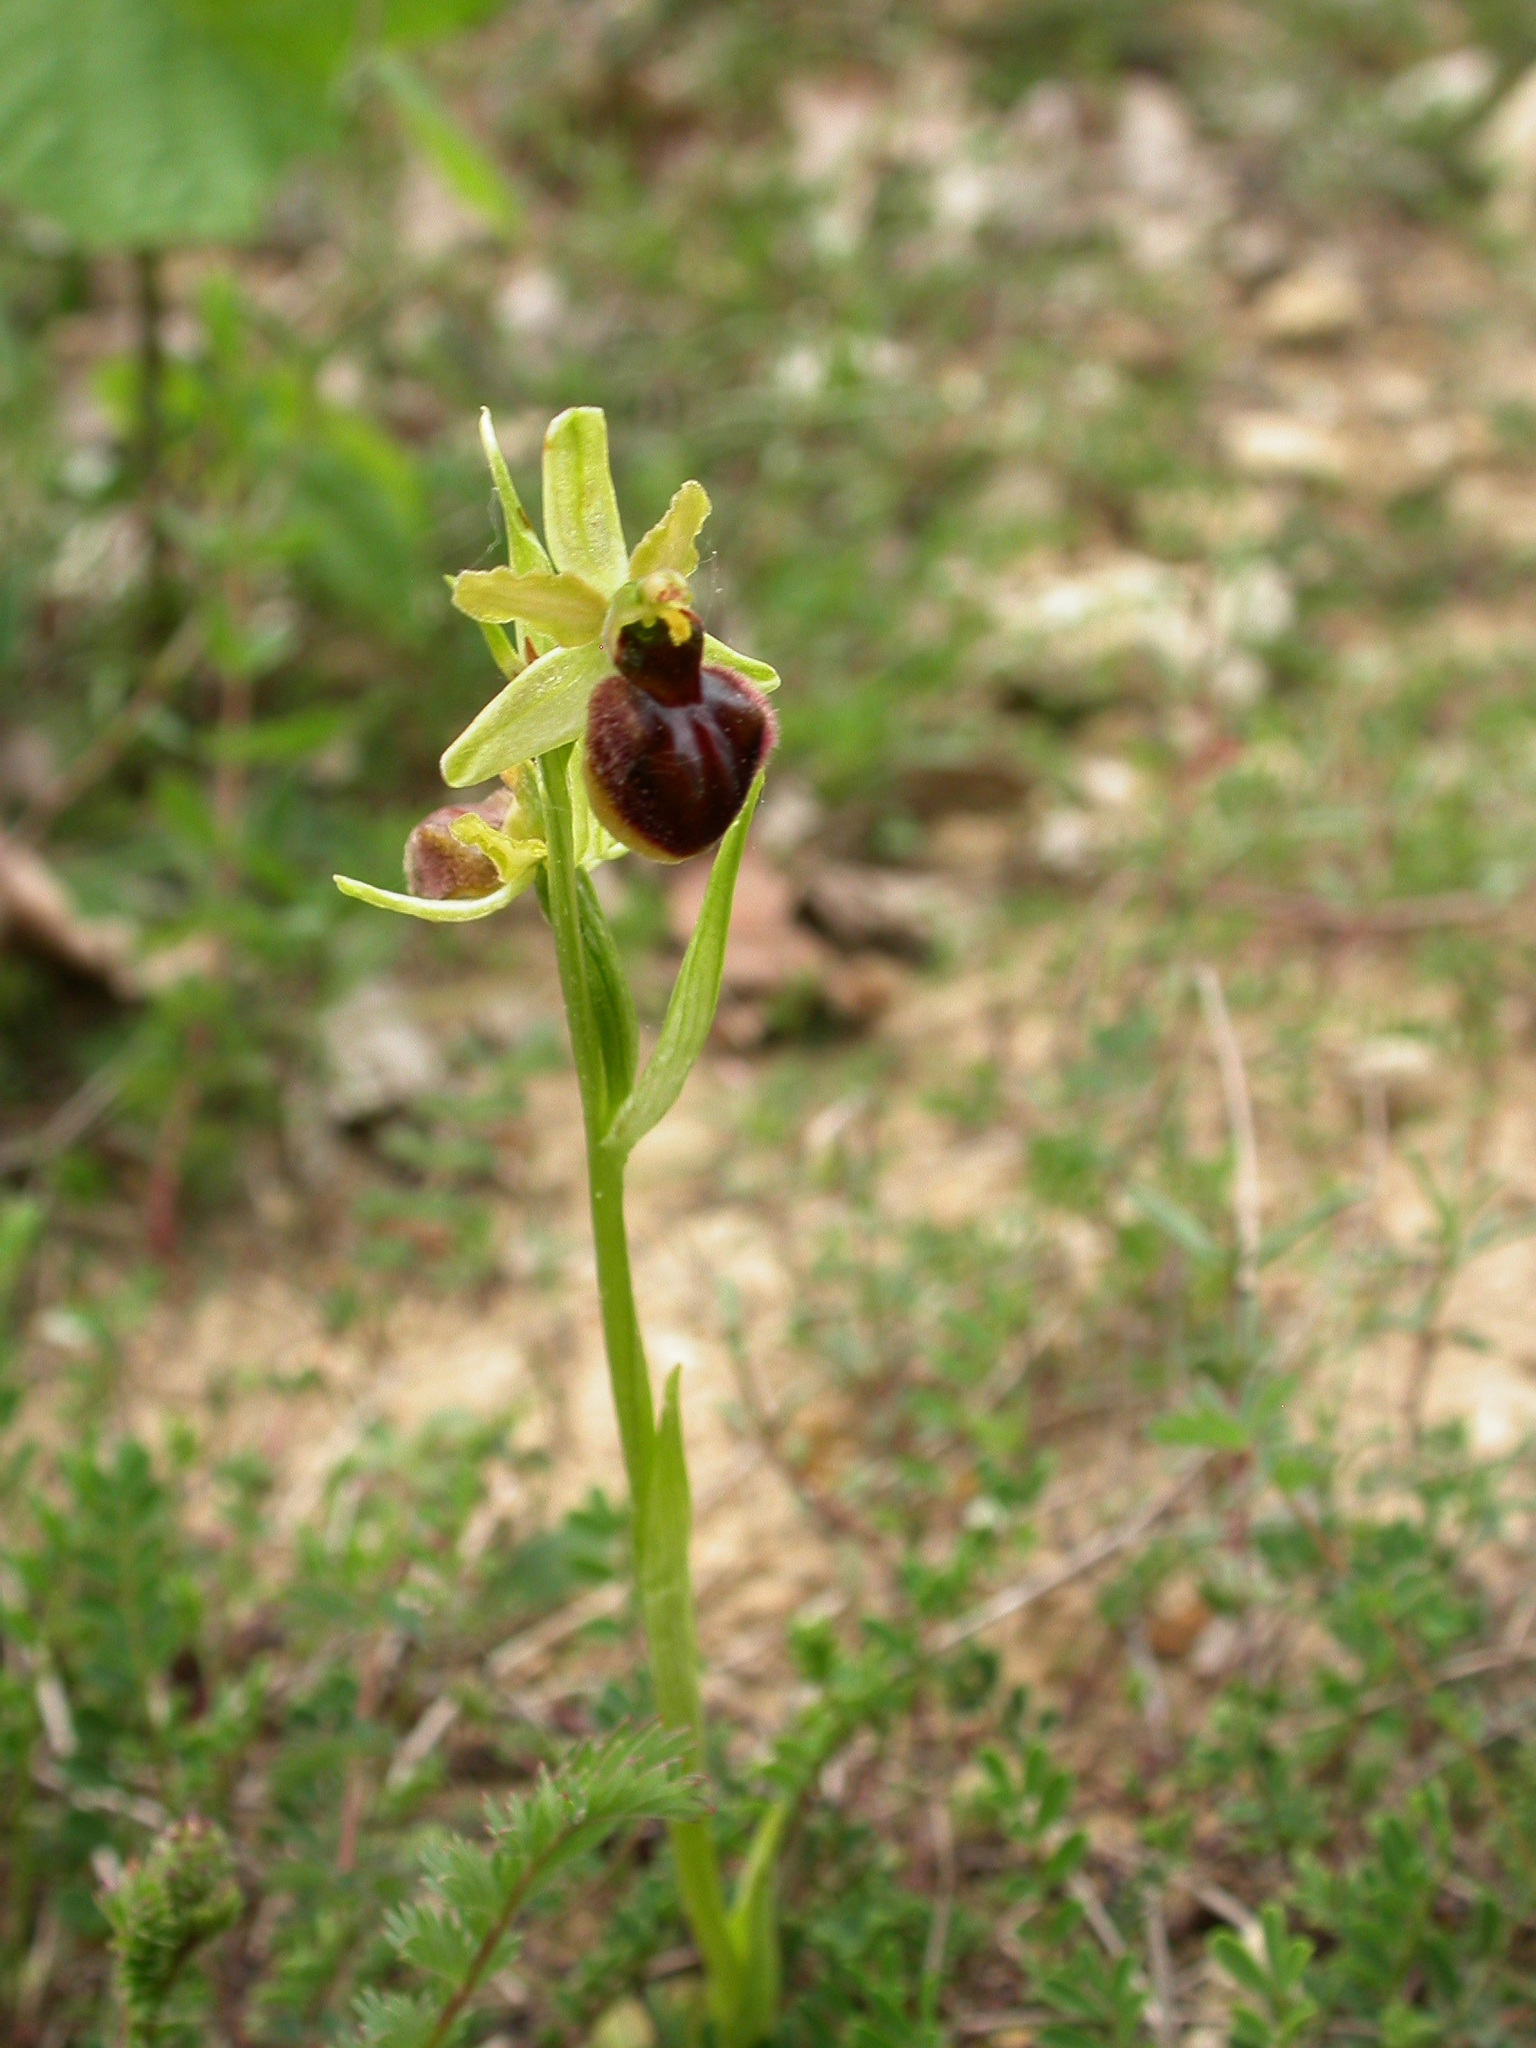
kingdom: Plantae
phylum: Tracheophyta
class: Liliopsida
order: Asparagales
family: Orchidaceae
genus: Ophrys
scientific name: Ophrys sphegodes
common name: Early spider-orchid
